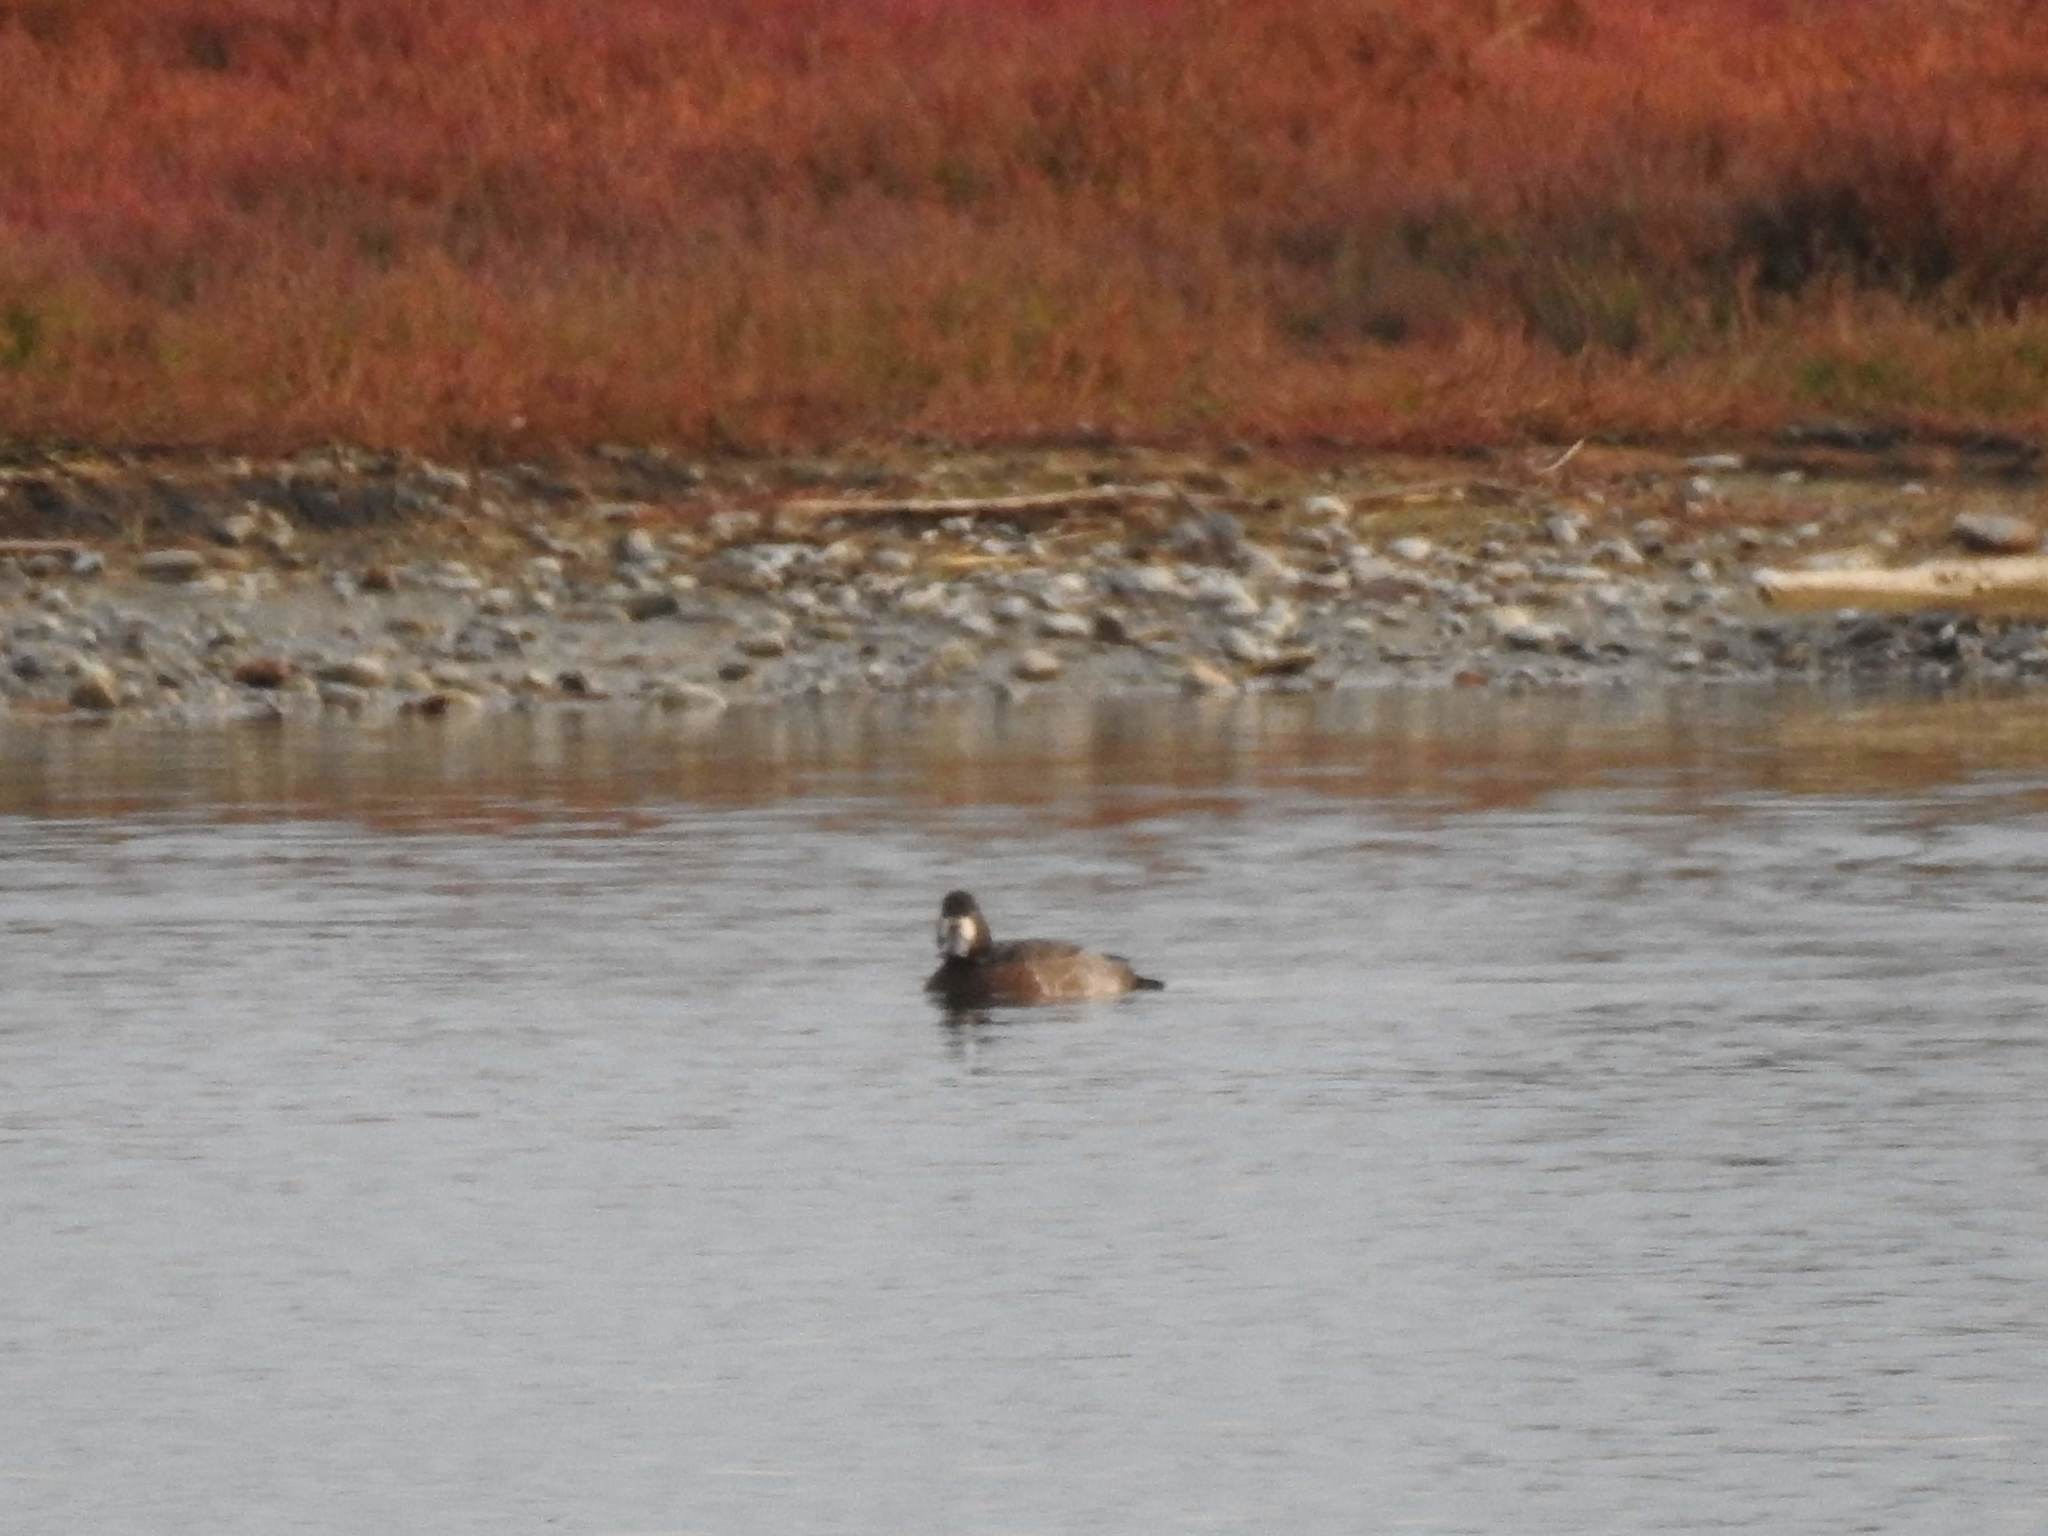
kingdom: Animalia
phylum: Chordata
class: Aves
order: Anseriformes
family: Anatidae
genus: Aythya
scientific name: Aythya marila
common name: Greater scaup
